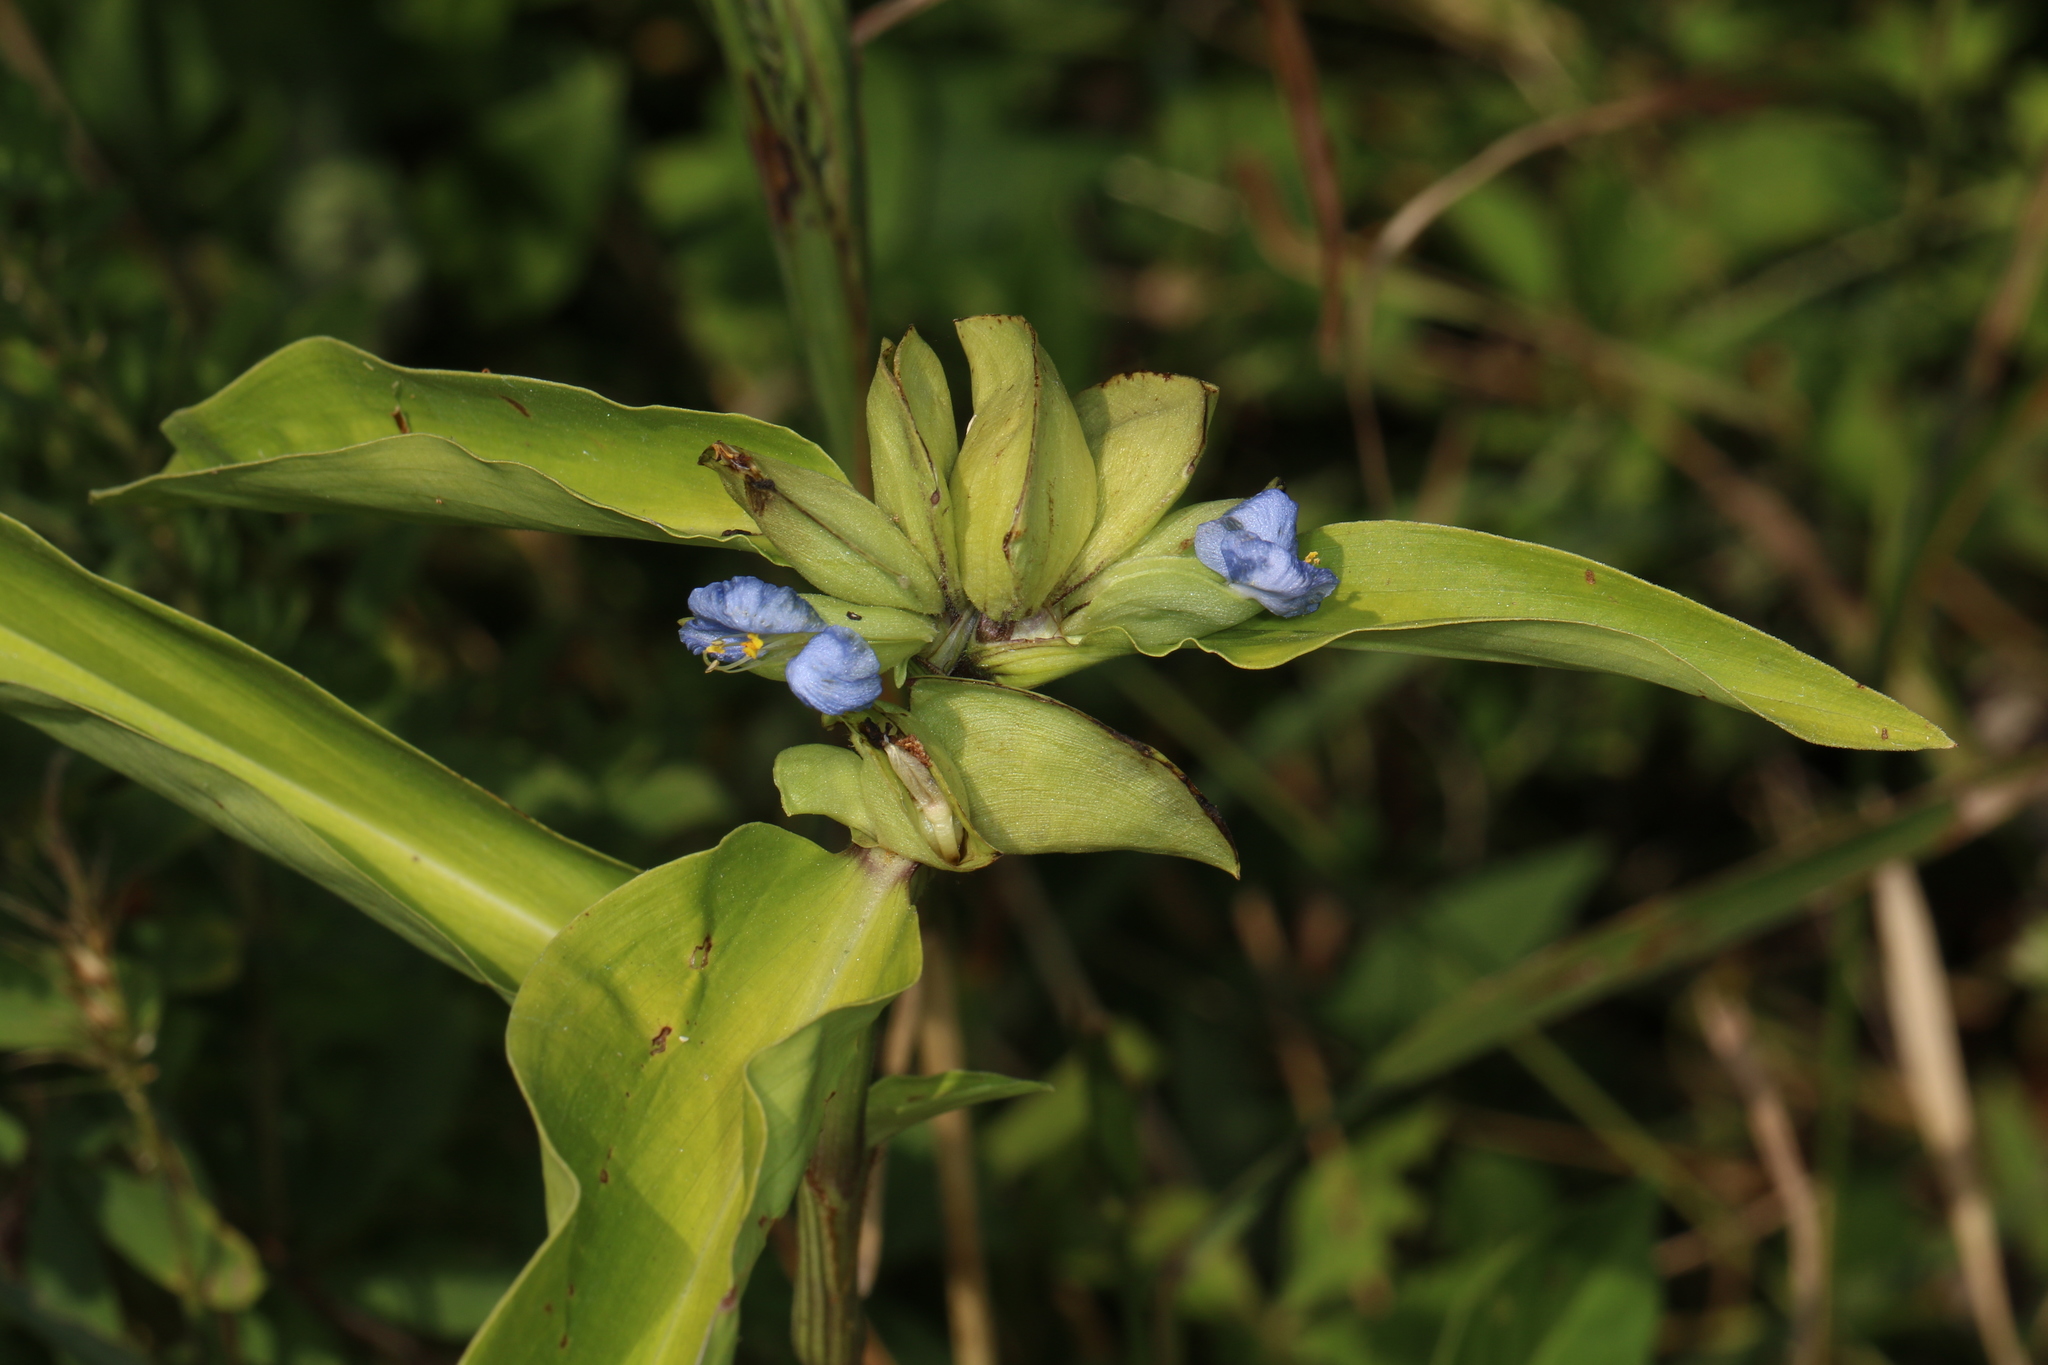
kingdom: Plantae
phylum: Tracheophyta
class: Liliopsida
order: Commelinales
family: Commelinaceae
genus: Commelina
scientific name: Commelina virginica
